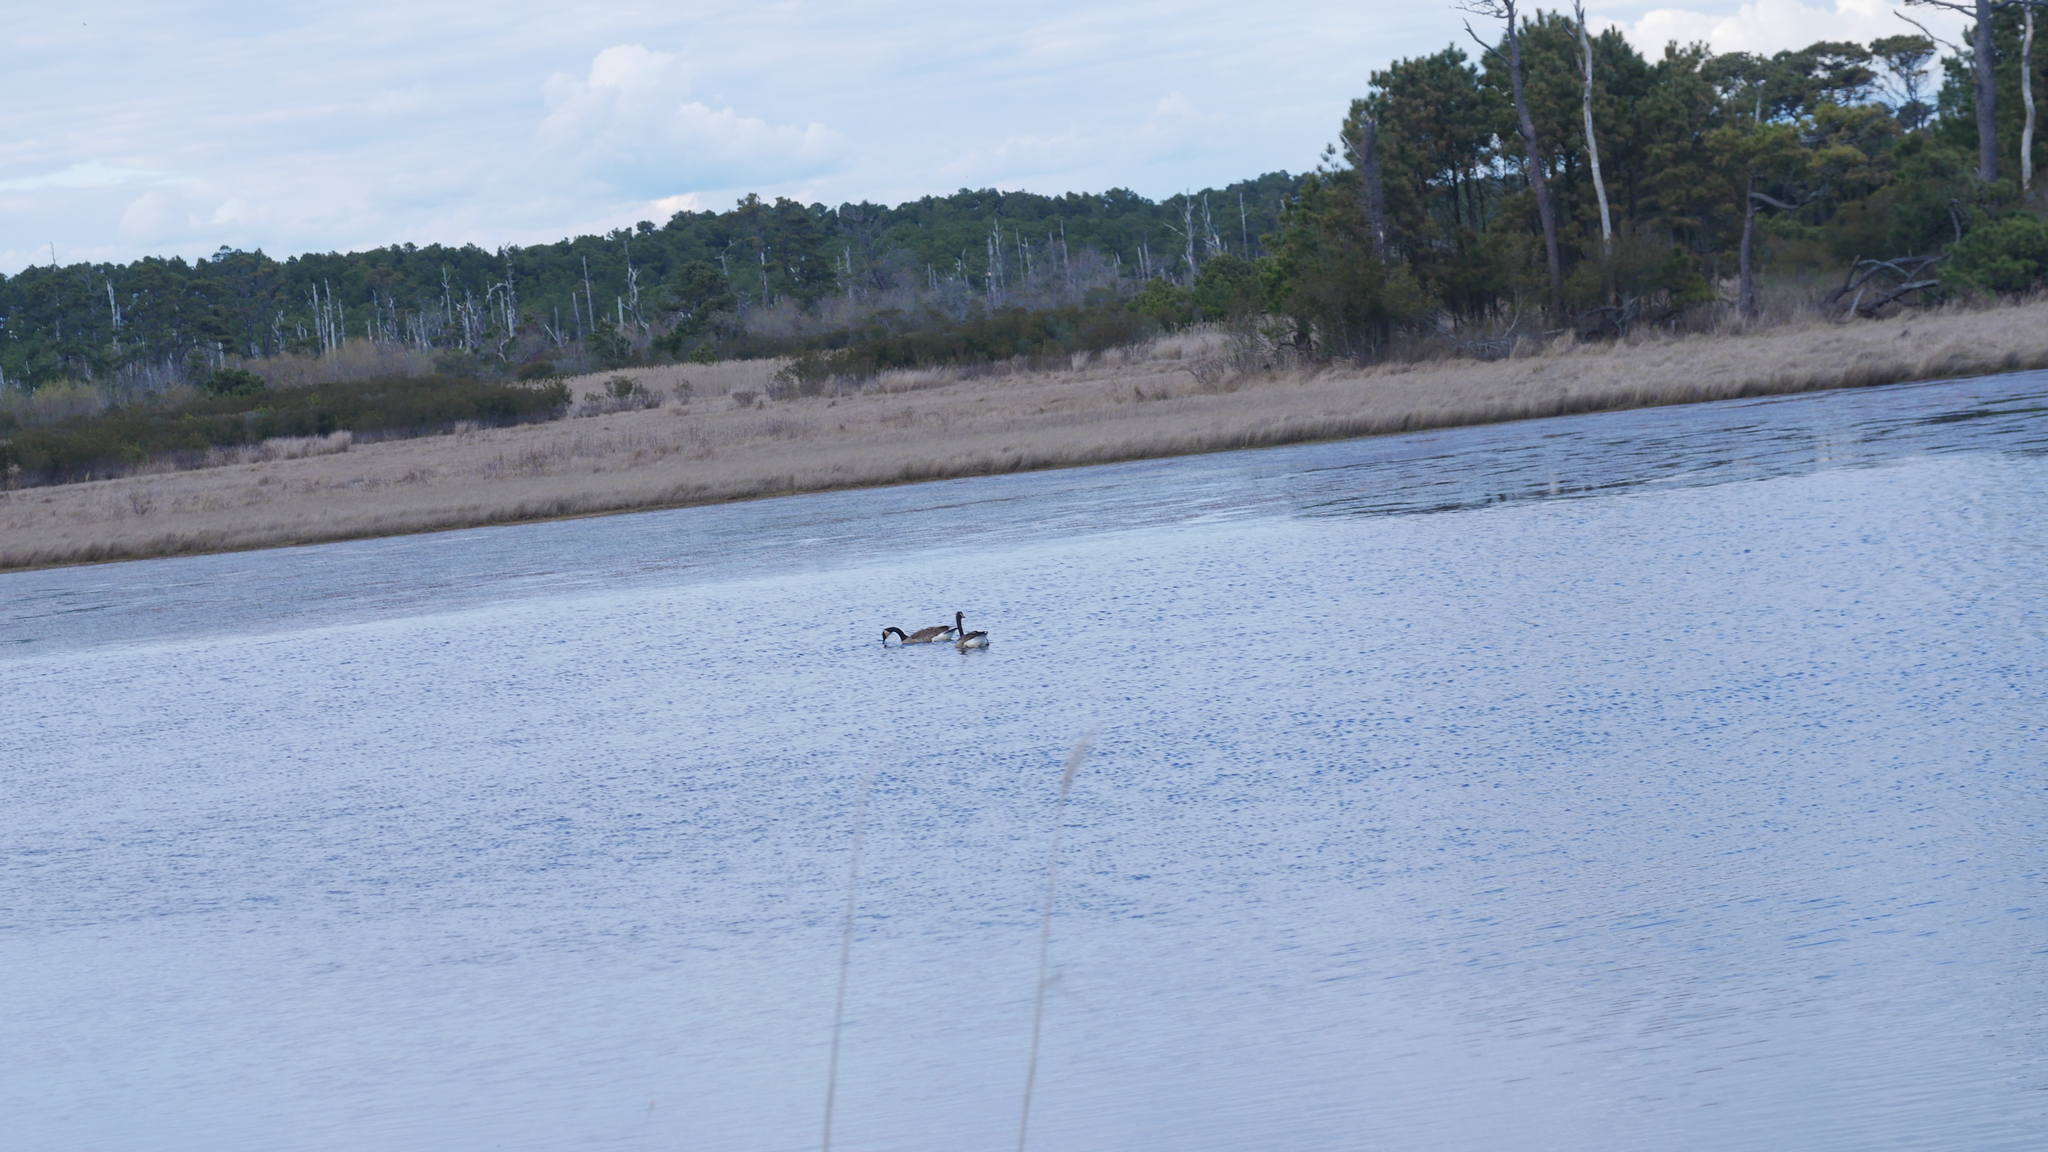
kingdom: Animalia
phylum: Chordata
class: Aves
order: Anseriformes
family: Anatidae
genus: Branta
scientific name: Branta canadensis
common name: Canada goose
